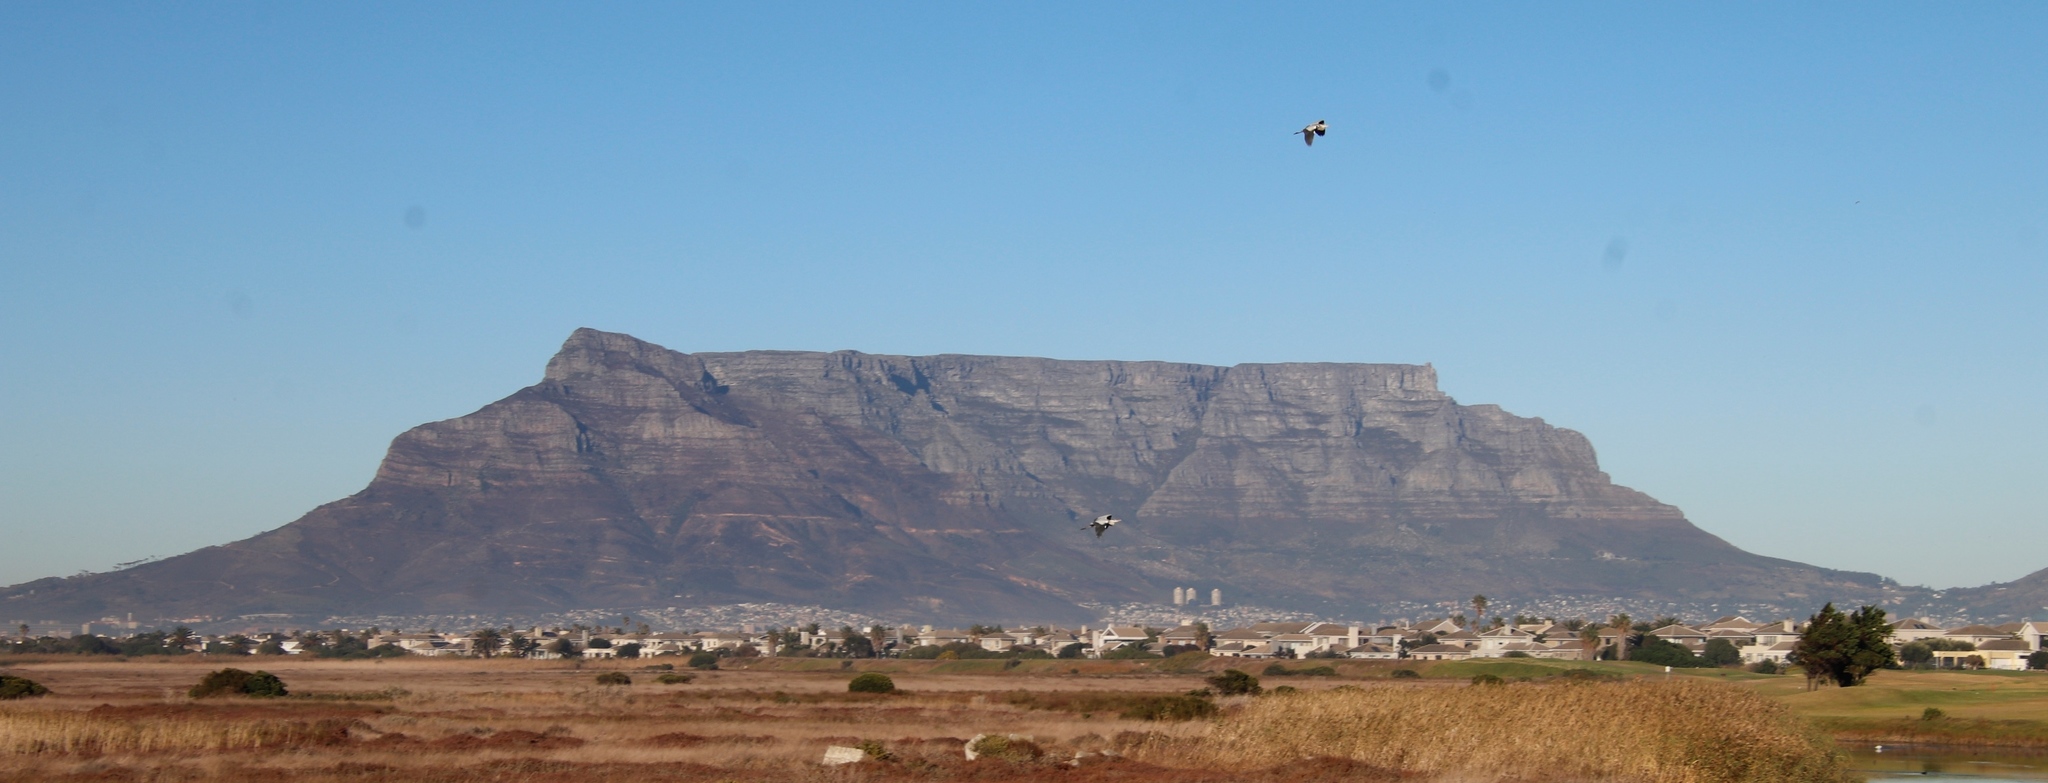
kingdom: Animalia
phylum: Chordata
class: Aves
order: Pelecaniformes
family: Ardeidae
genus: Ardea
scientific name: Ardea cinerea
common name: Grey heron
